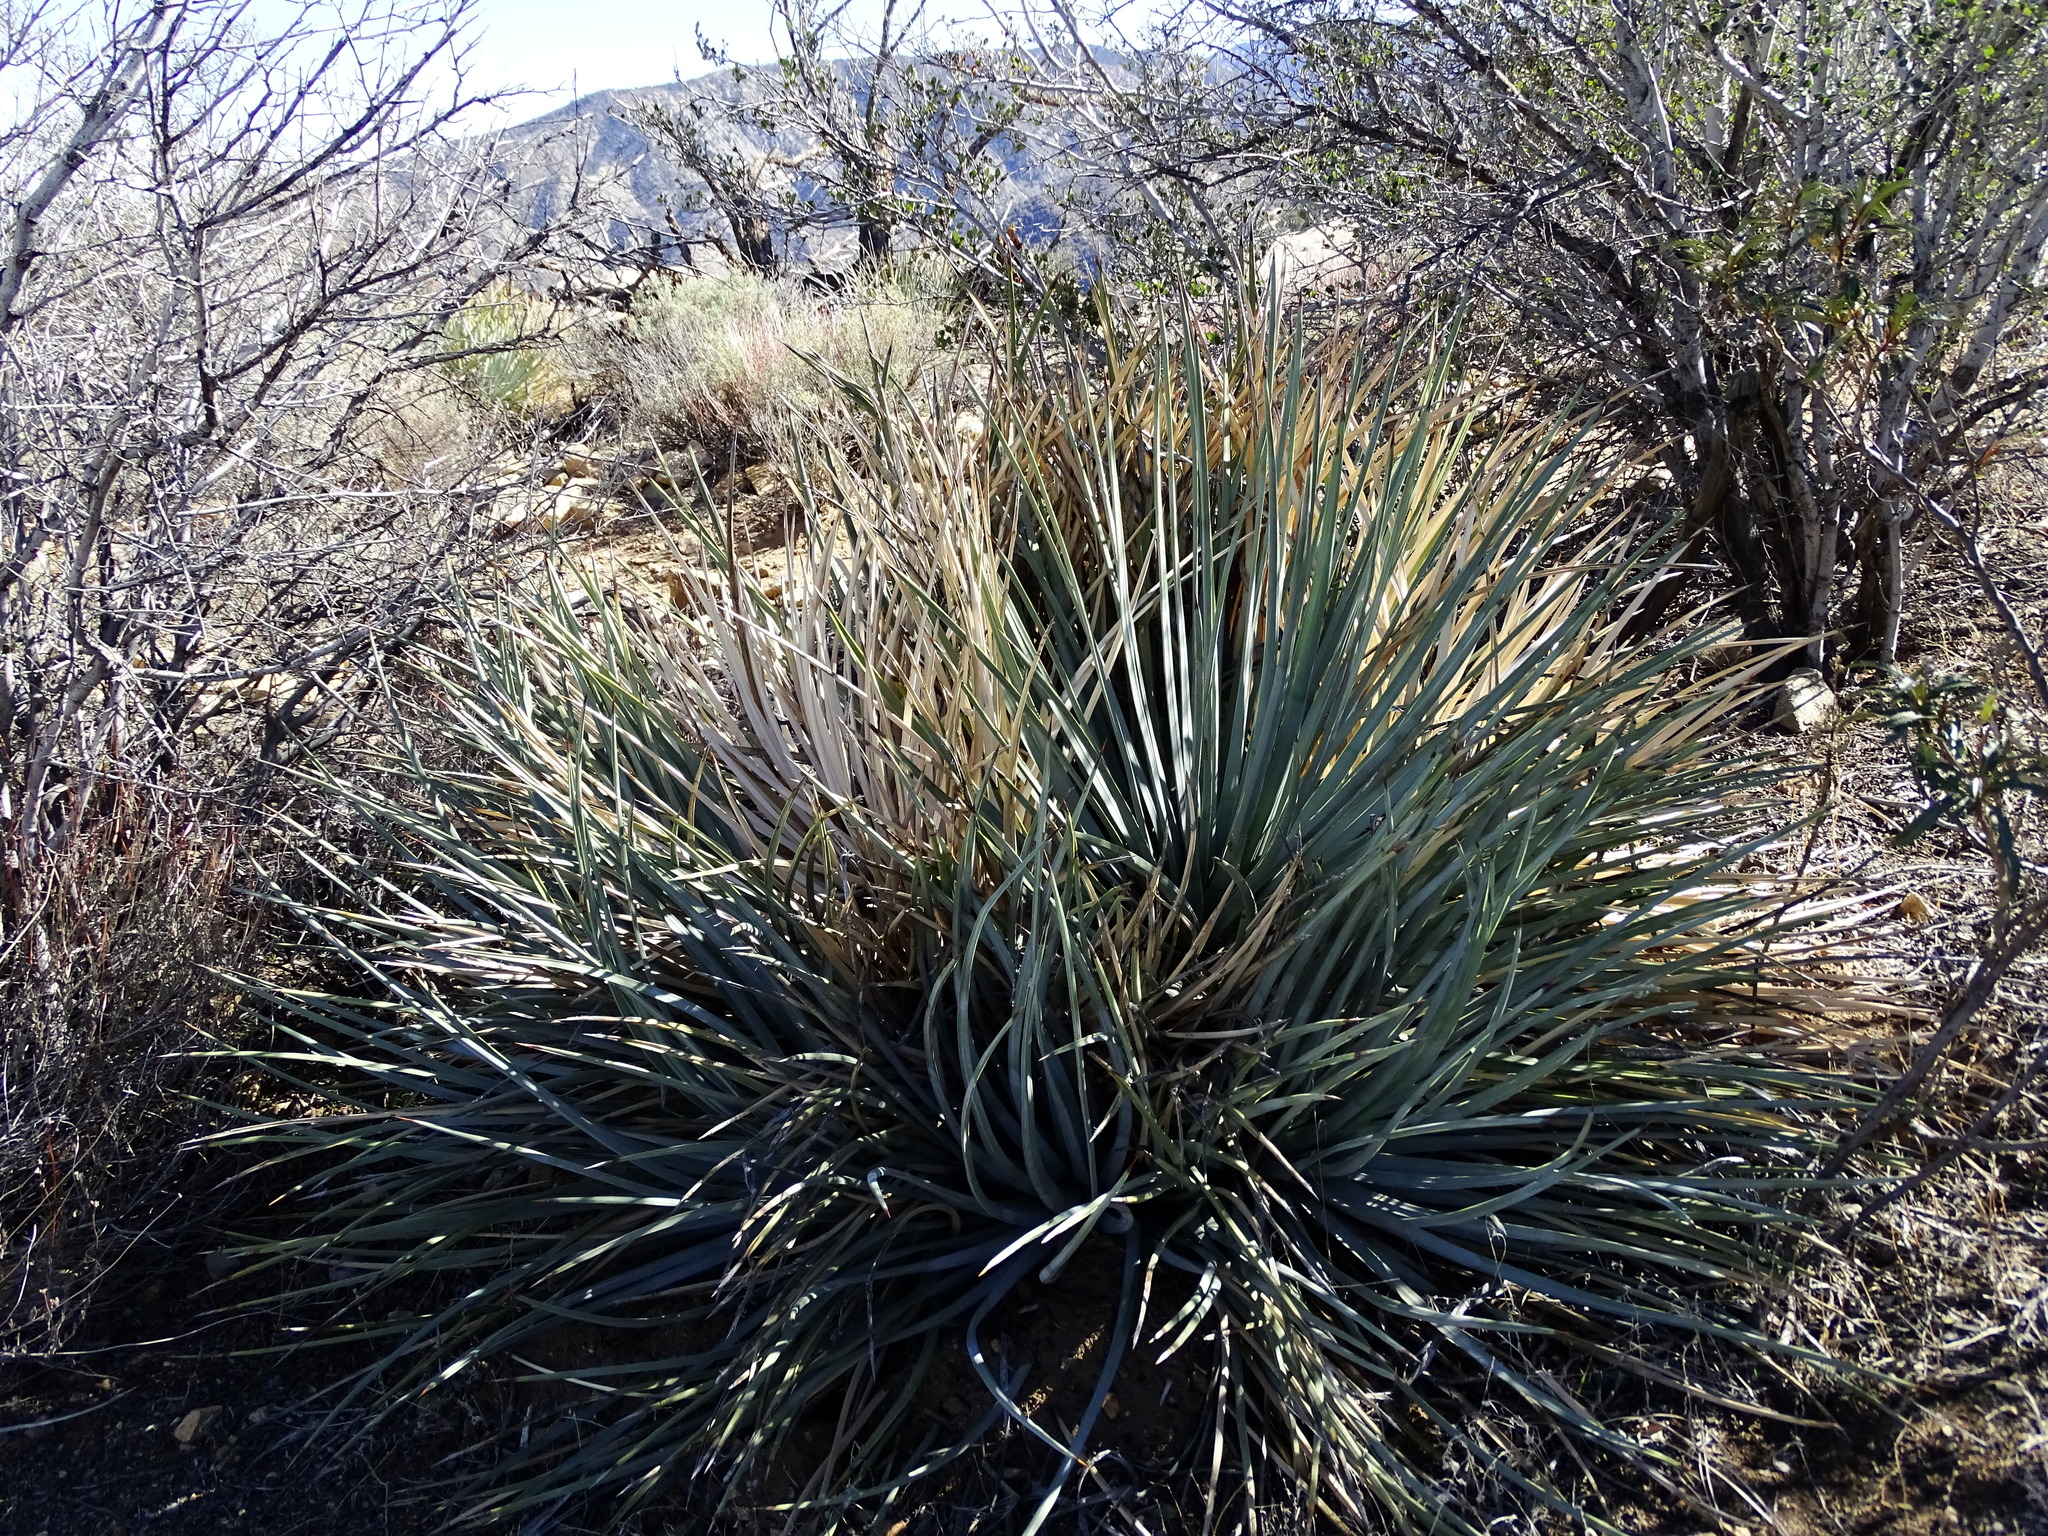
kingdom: Plantae
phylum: Tracheophyta
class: Liliopsida
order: Asparagales
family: Asparagaceae
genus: Hesperoyucca
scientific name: Hesperoyucca whipplei
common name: Our lord's-candle
